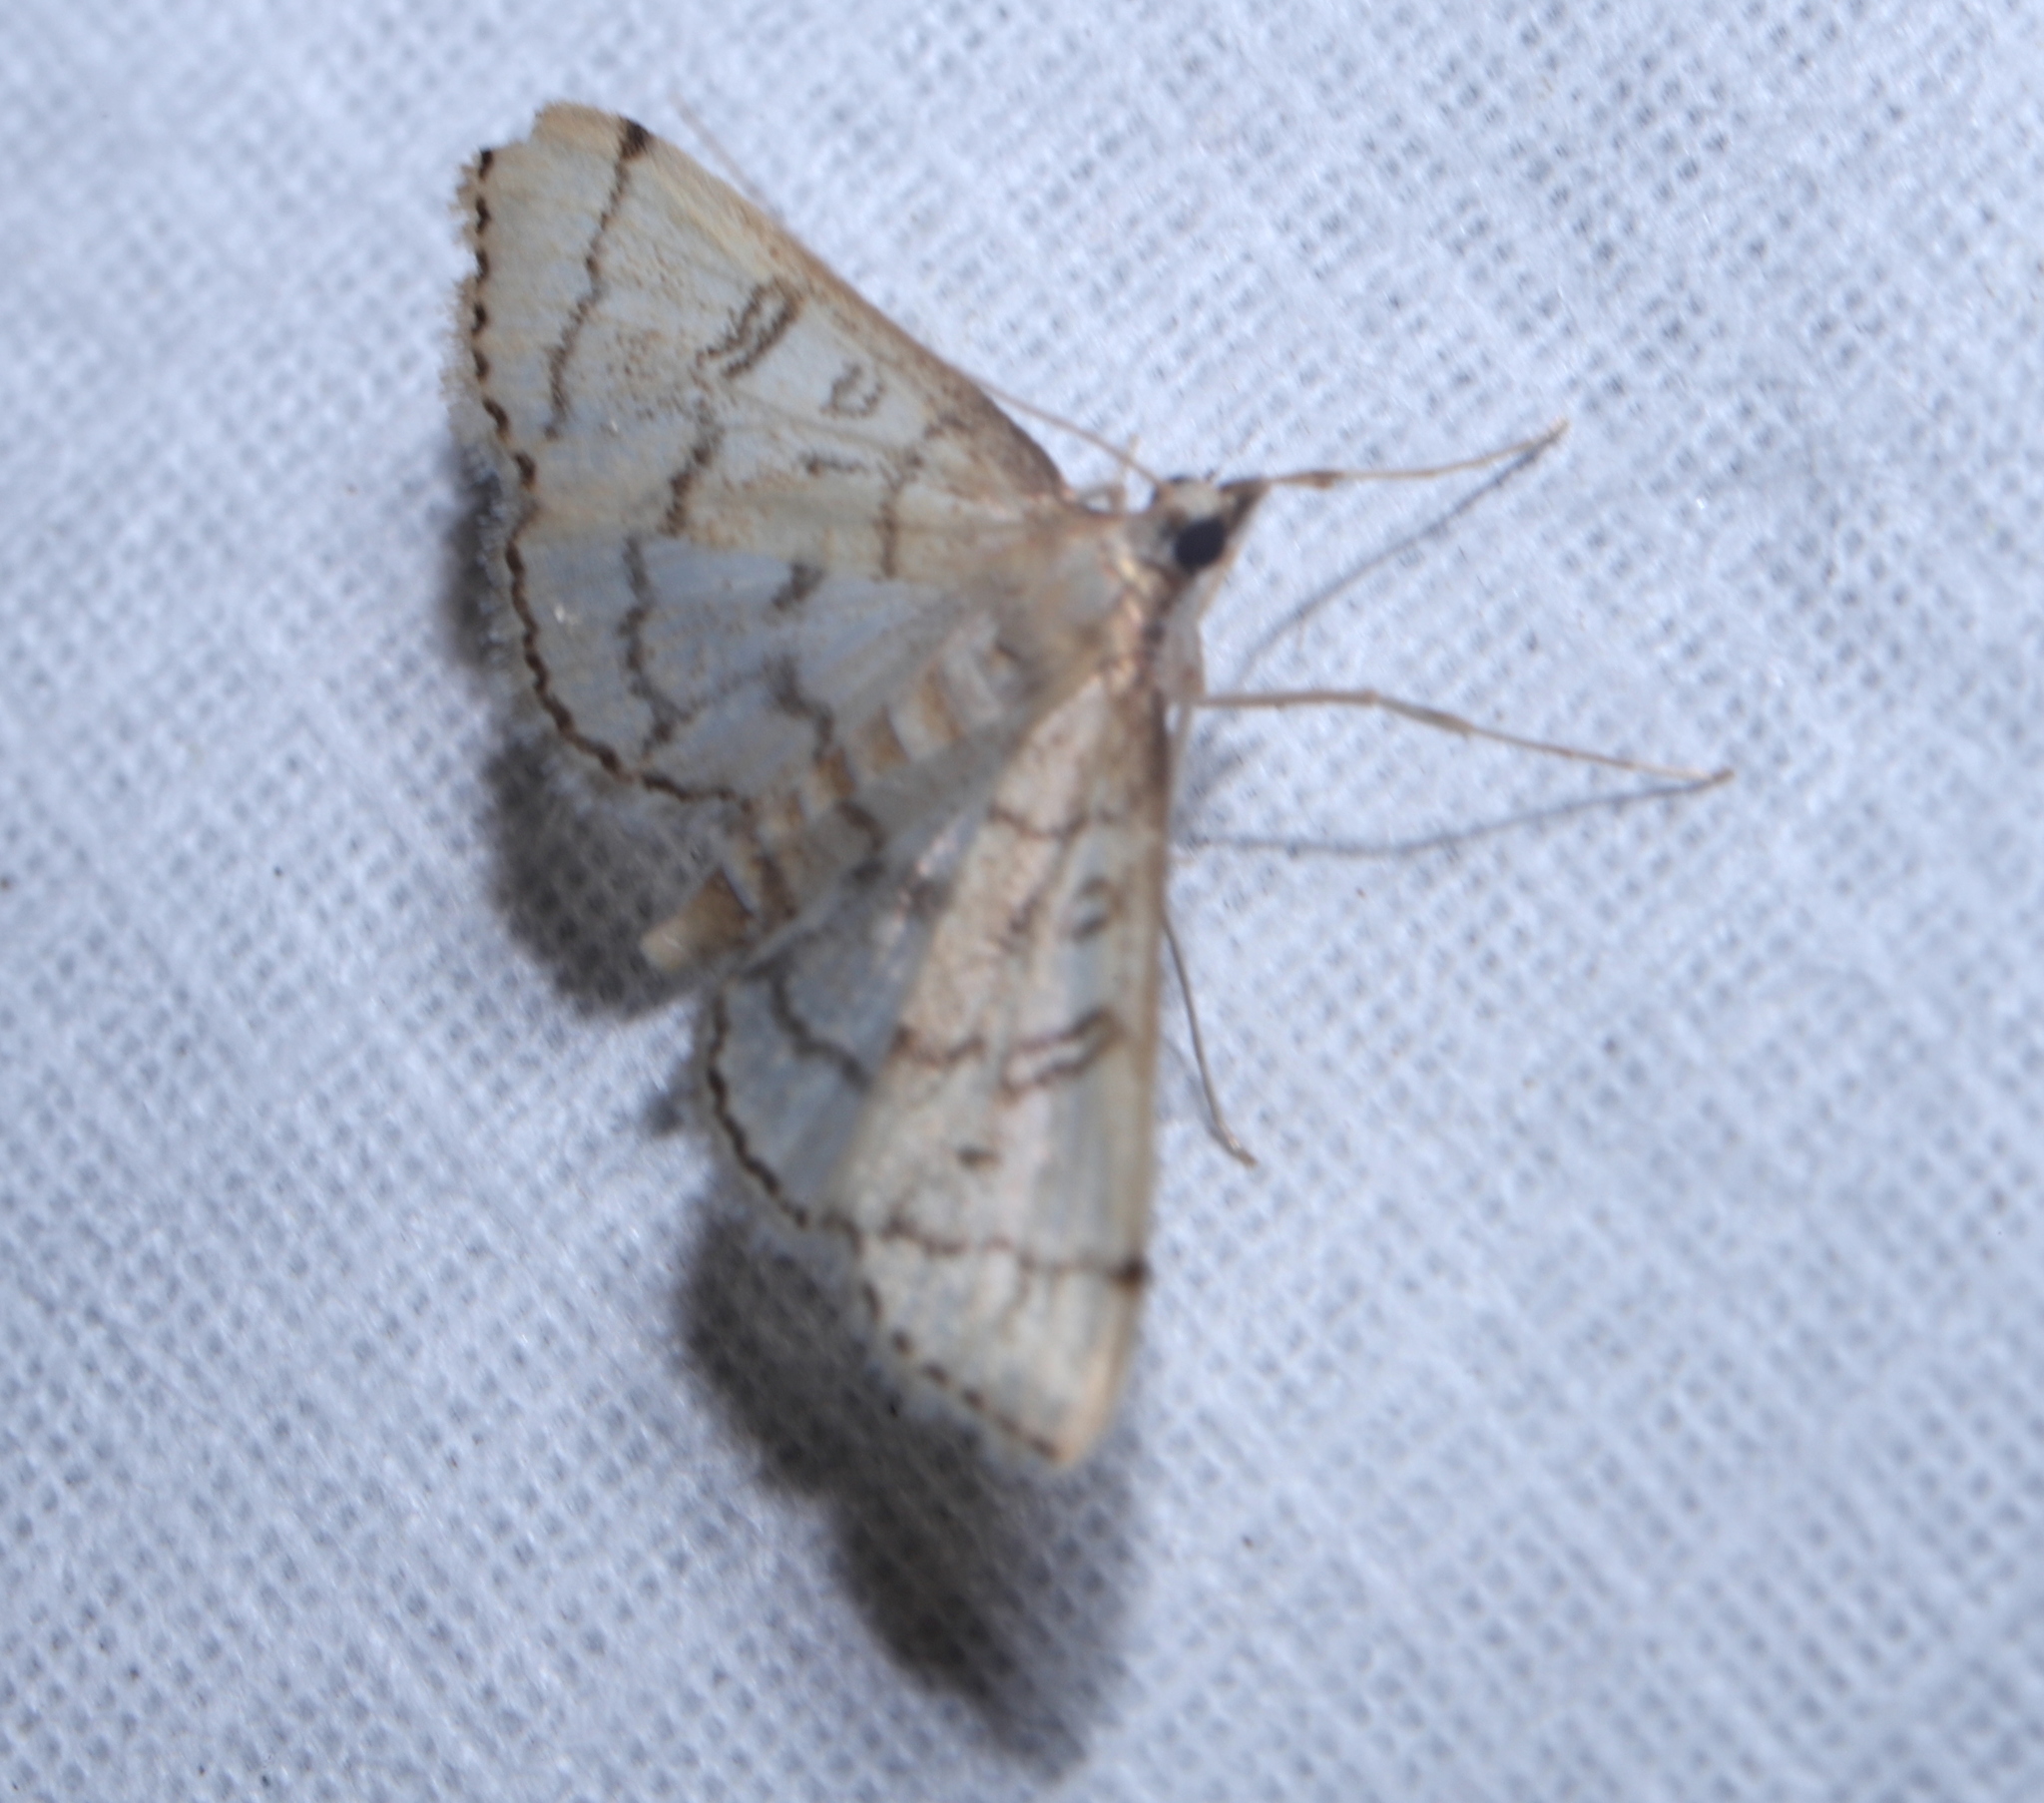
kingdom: Animalia
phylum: Arthropoda
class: Insecta
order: Lepidoptera
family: Crambidae
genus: Lamprosema
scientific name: Lamprosema Blepharomastix ranalis
